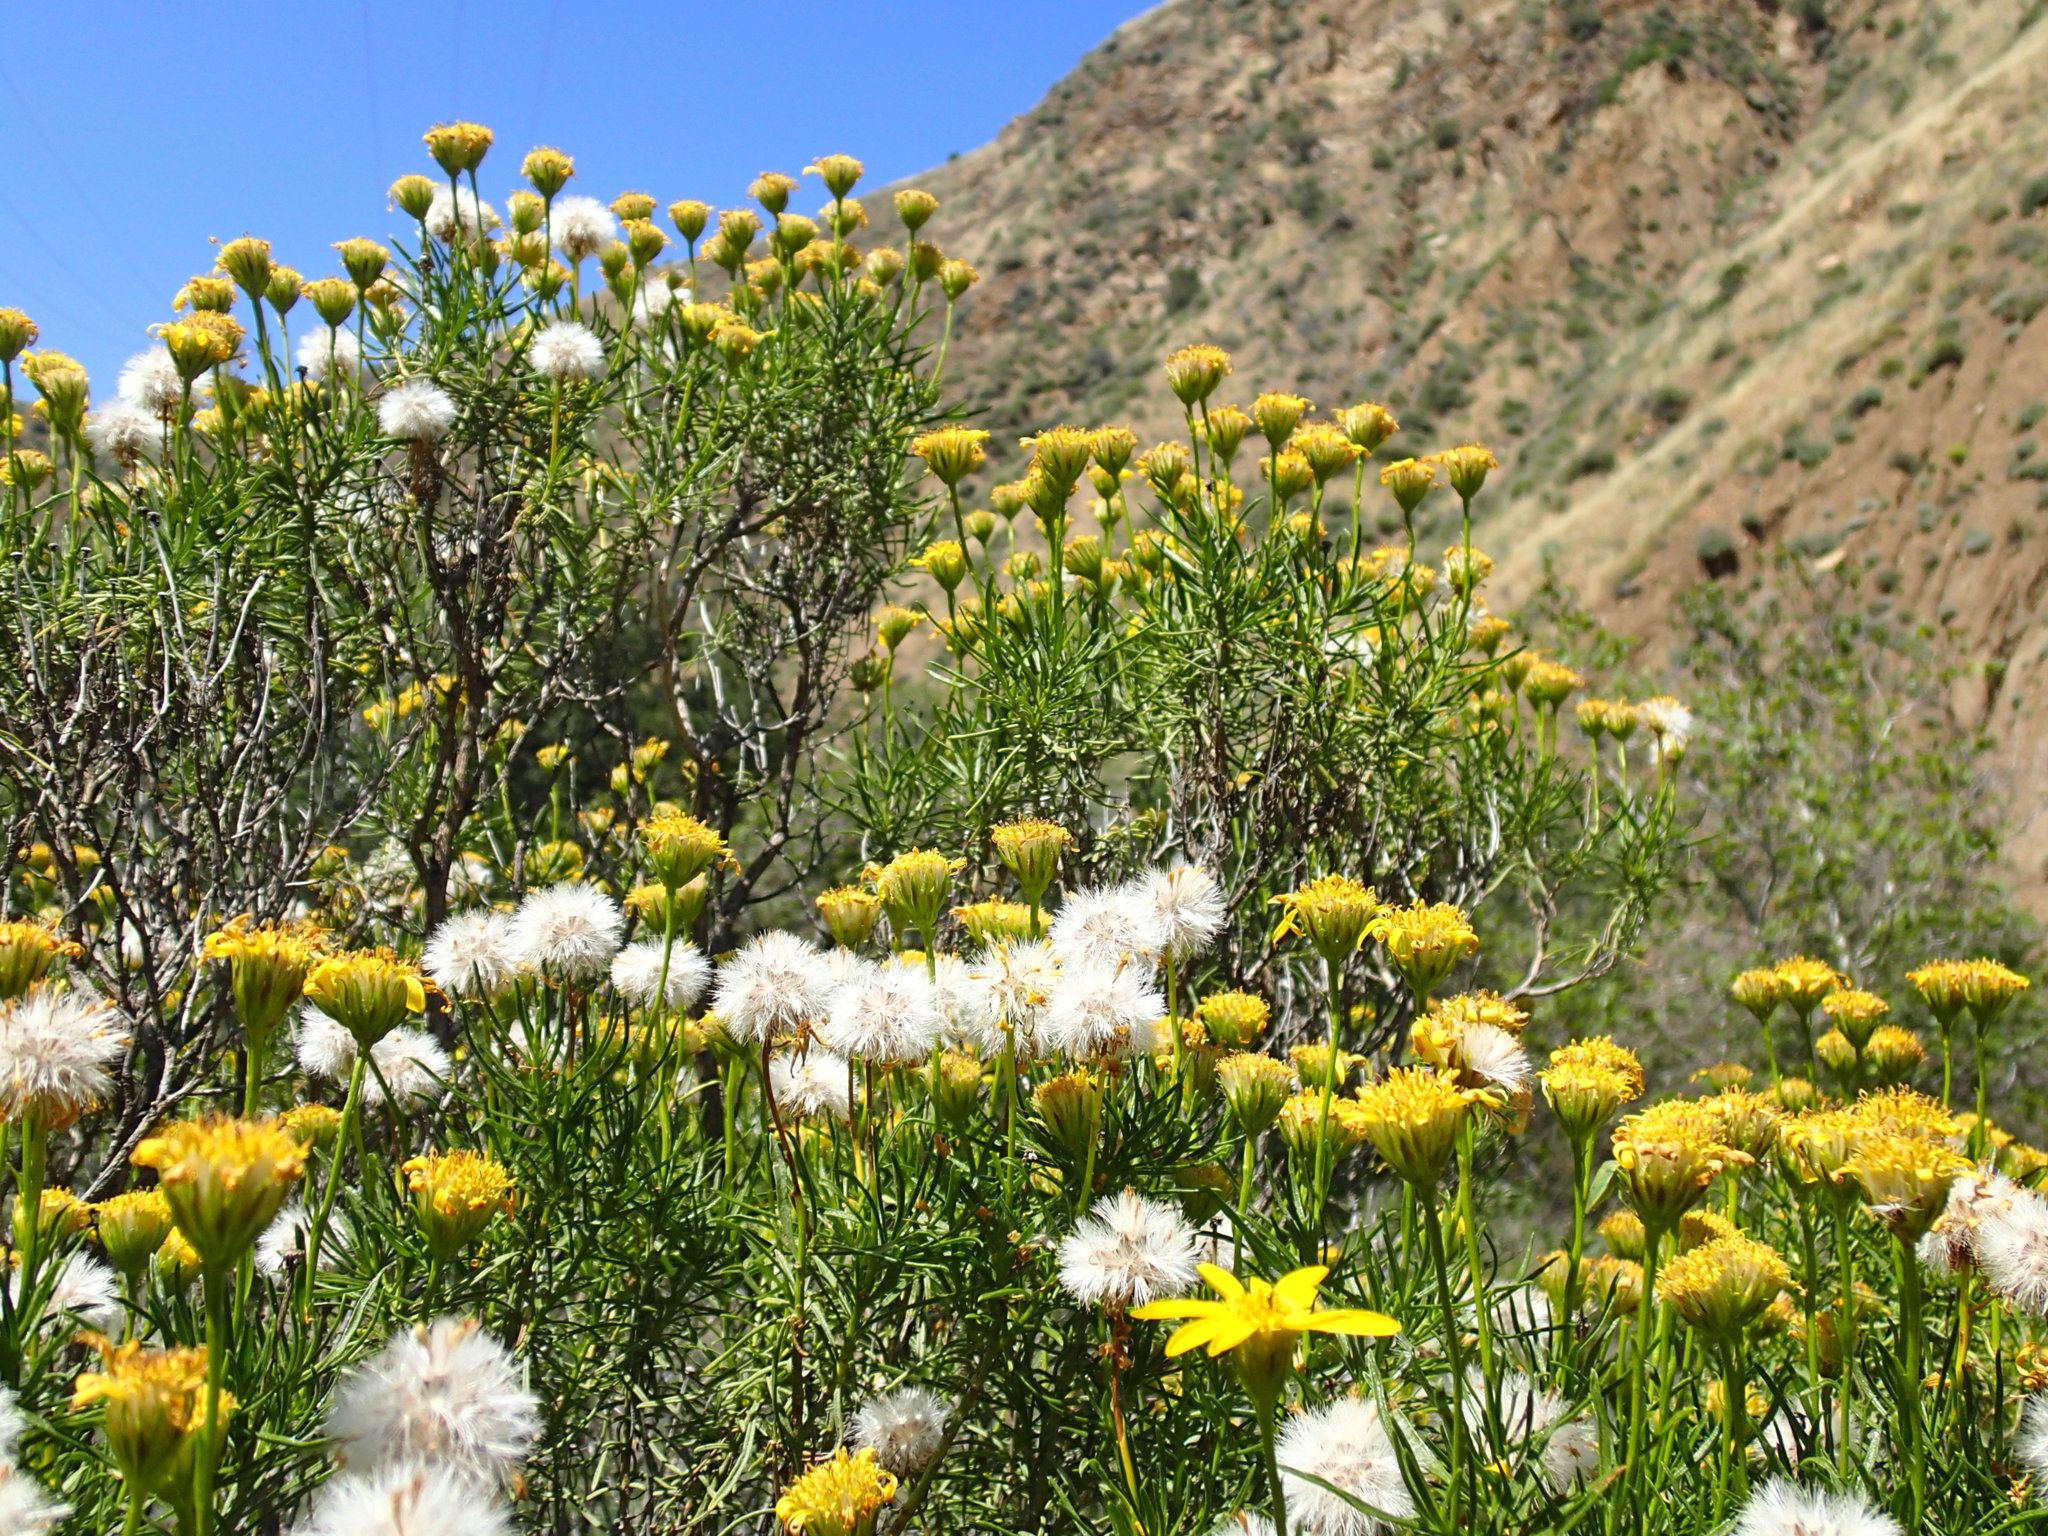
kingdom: Plantae
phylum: Tracheophyta
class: Magnoliopsida
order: Asterales
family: Asteraceae
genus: Ericameria
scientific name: Ericameria linearifolia
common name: Interior goldenbush
